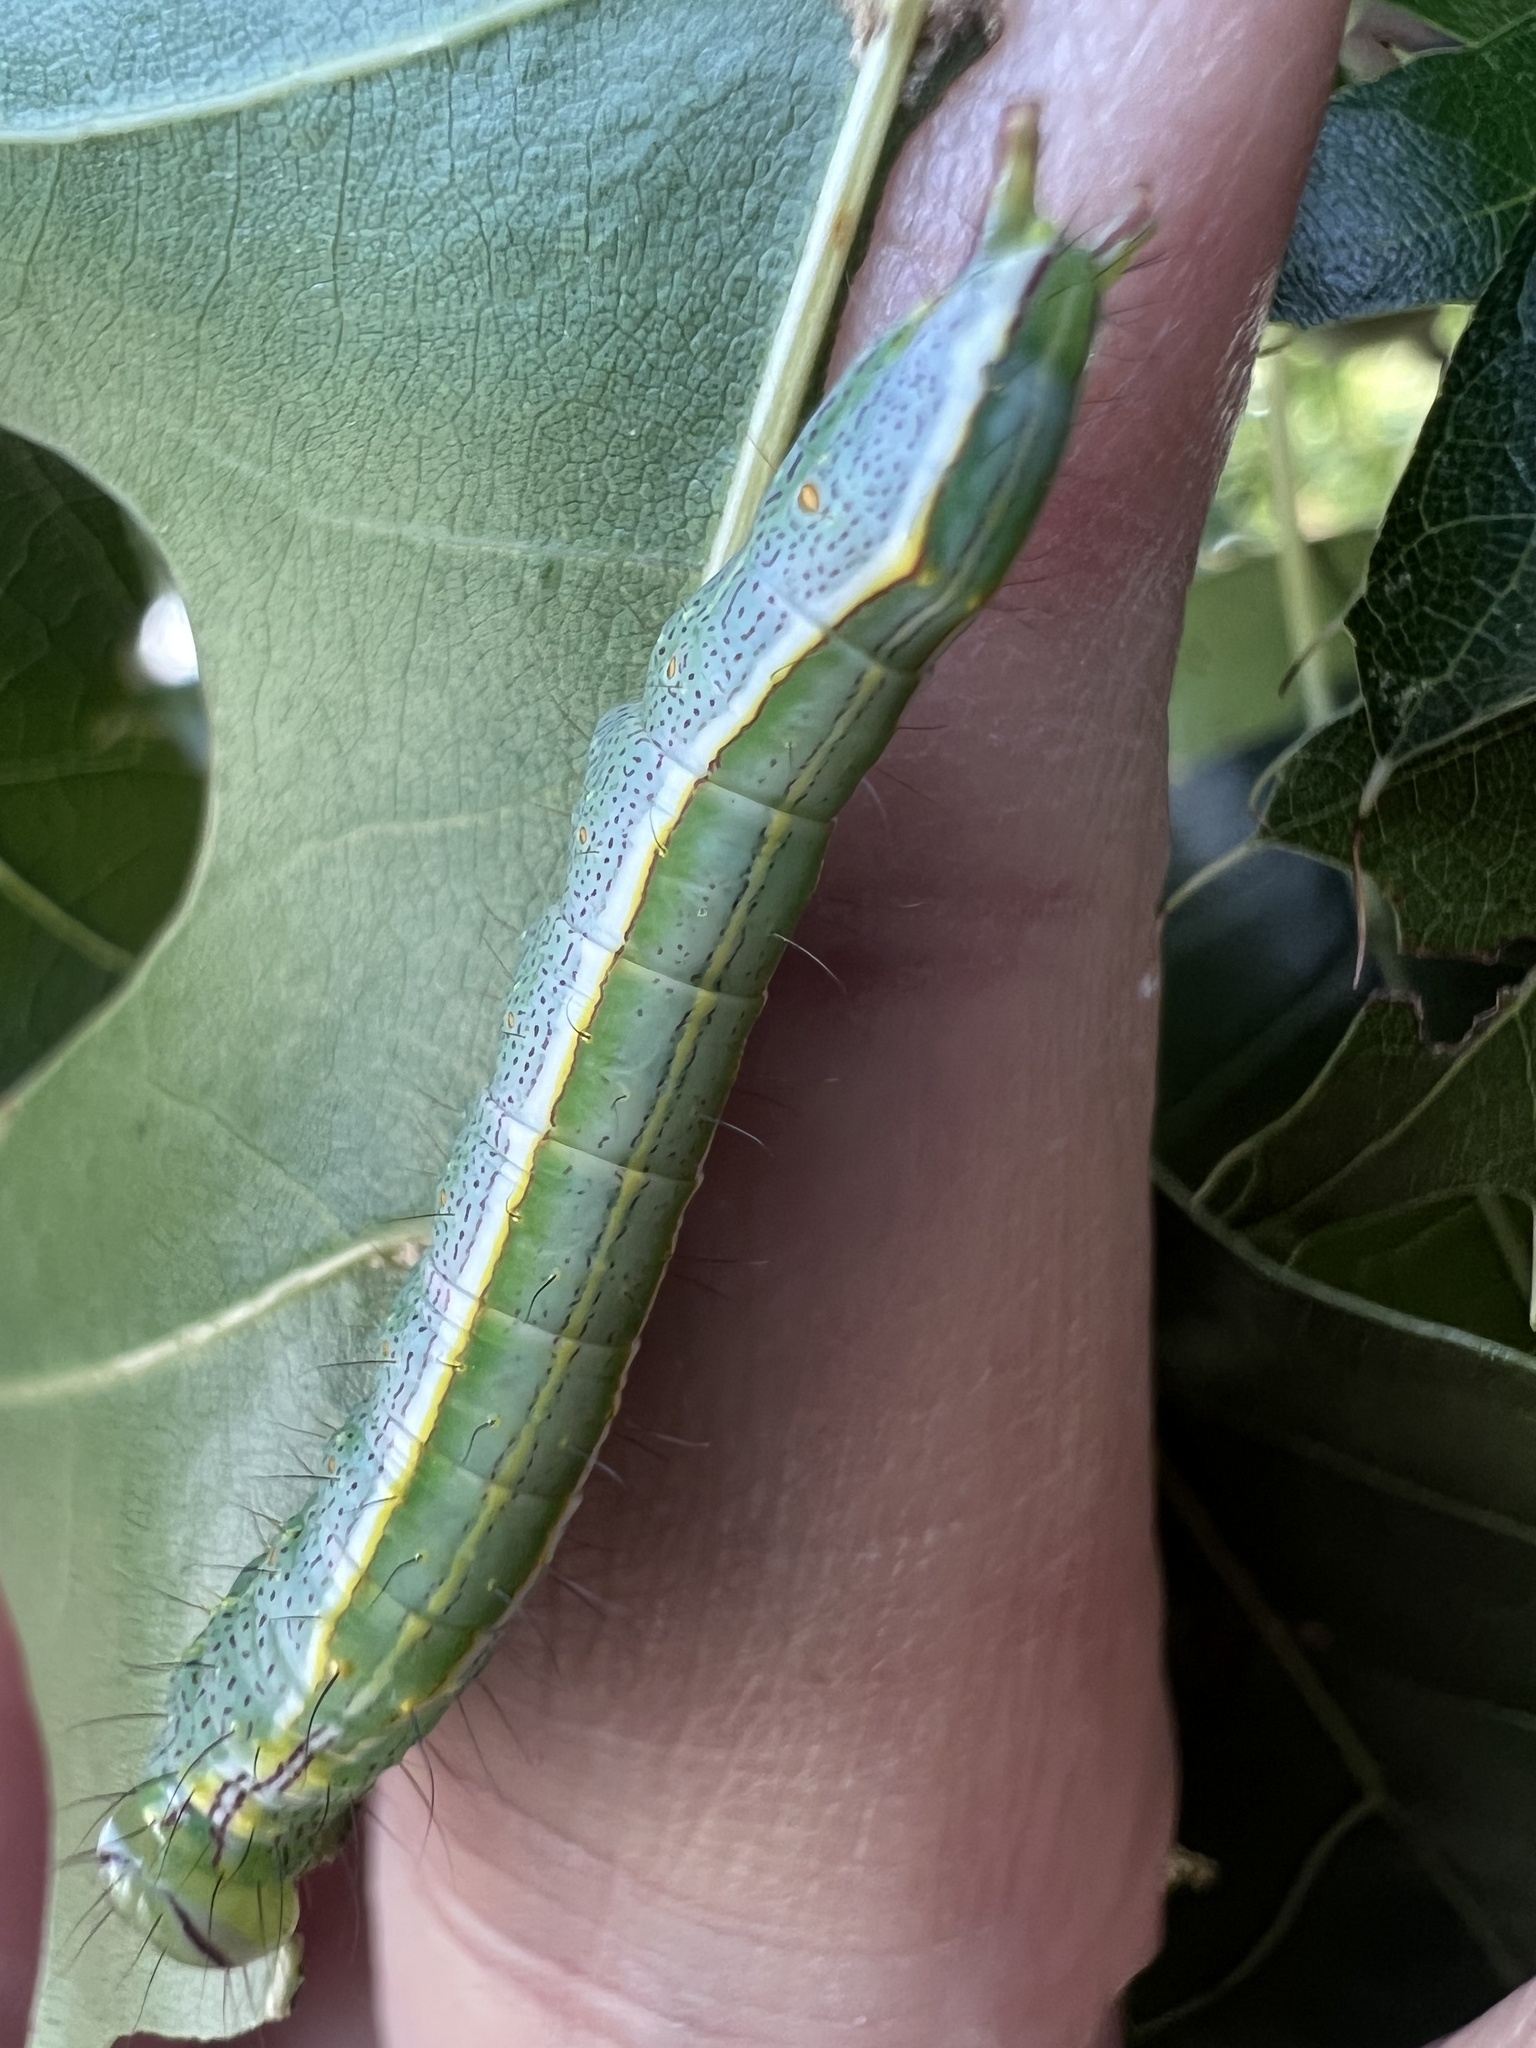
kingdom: Animalia
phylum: Arthropoda
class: Insecta
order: Lepidoptera
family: Notodontidae
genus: Lochmaeus
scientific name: Lochmaeus manteo
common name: Variable oakleaf caterpillar moth
